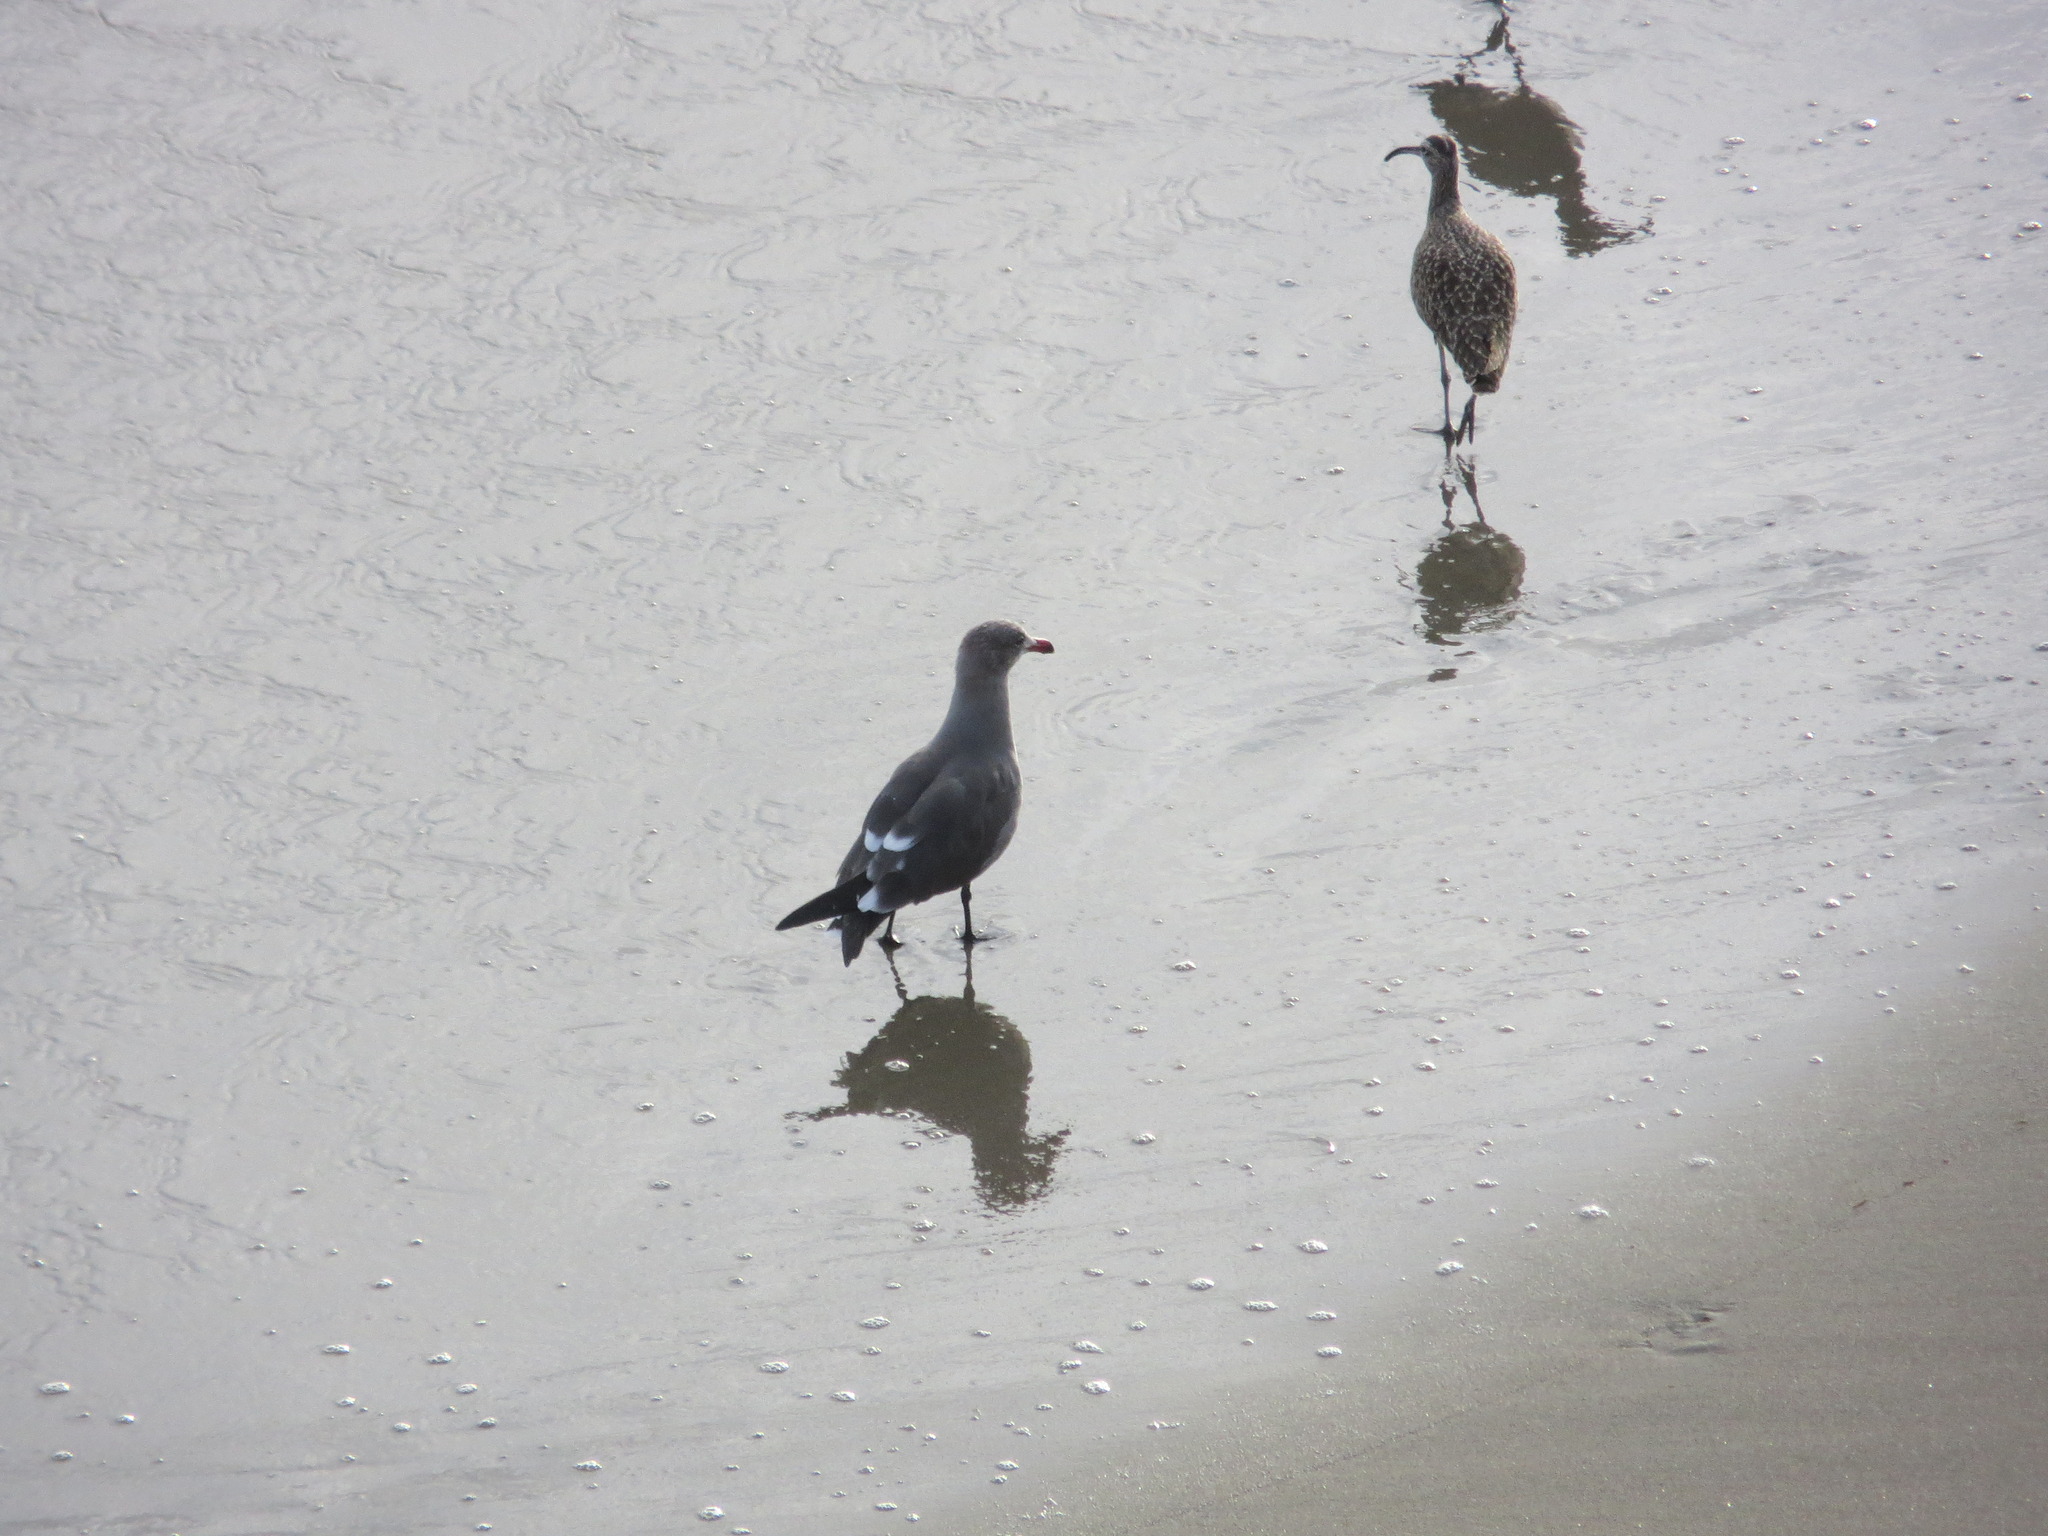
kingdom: Animalia
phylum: Chordata
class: Aves
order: Charadriiformes
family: Laridae
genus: Larus
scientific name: Larus heermanni
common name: Heermann's gull
